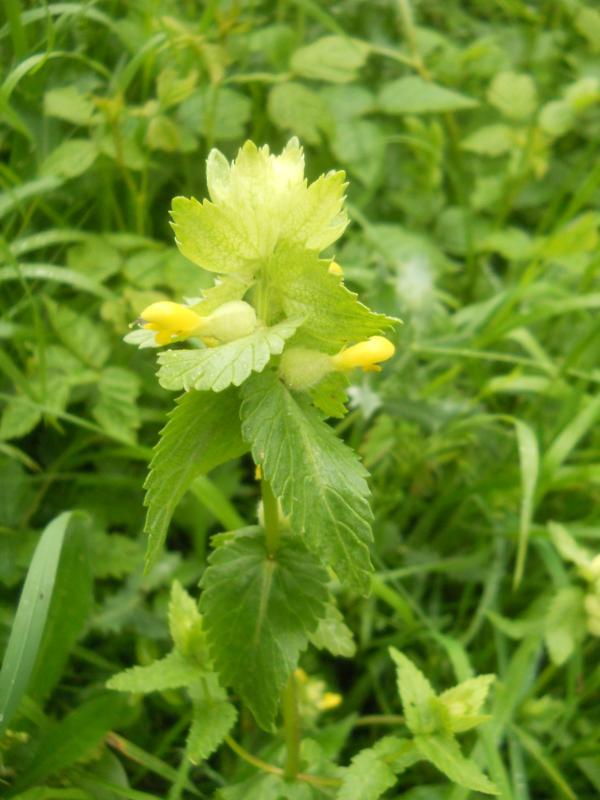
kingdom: Plantae
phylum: Tracheophyta
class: Magnoliopsida
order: Lamiales
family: Orobanchaceae
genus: Rhinanthus
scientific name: Rhinanthus alectorolophus
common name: Greater yellow-rattle
